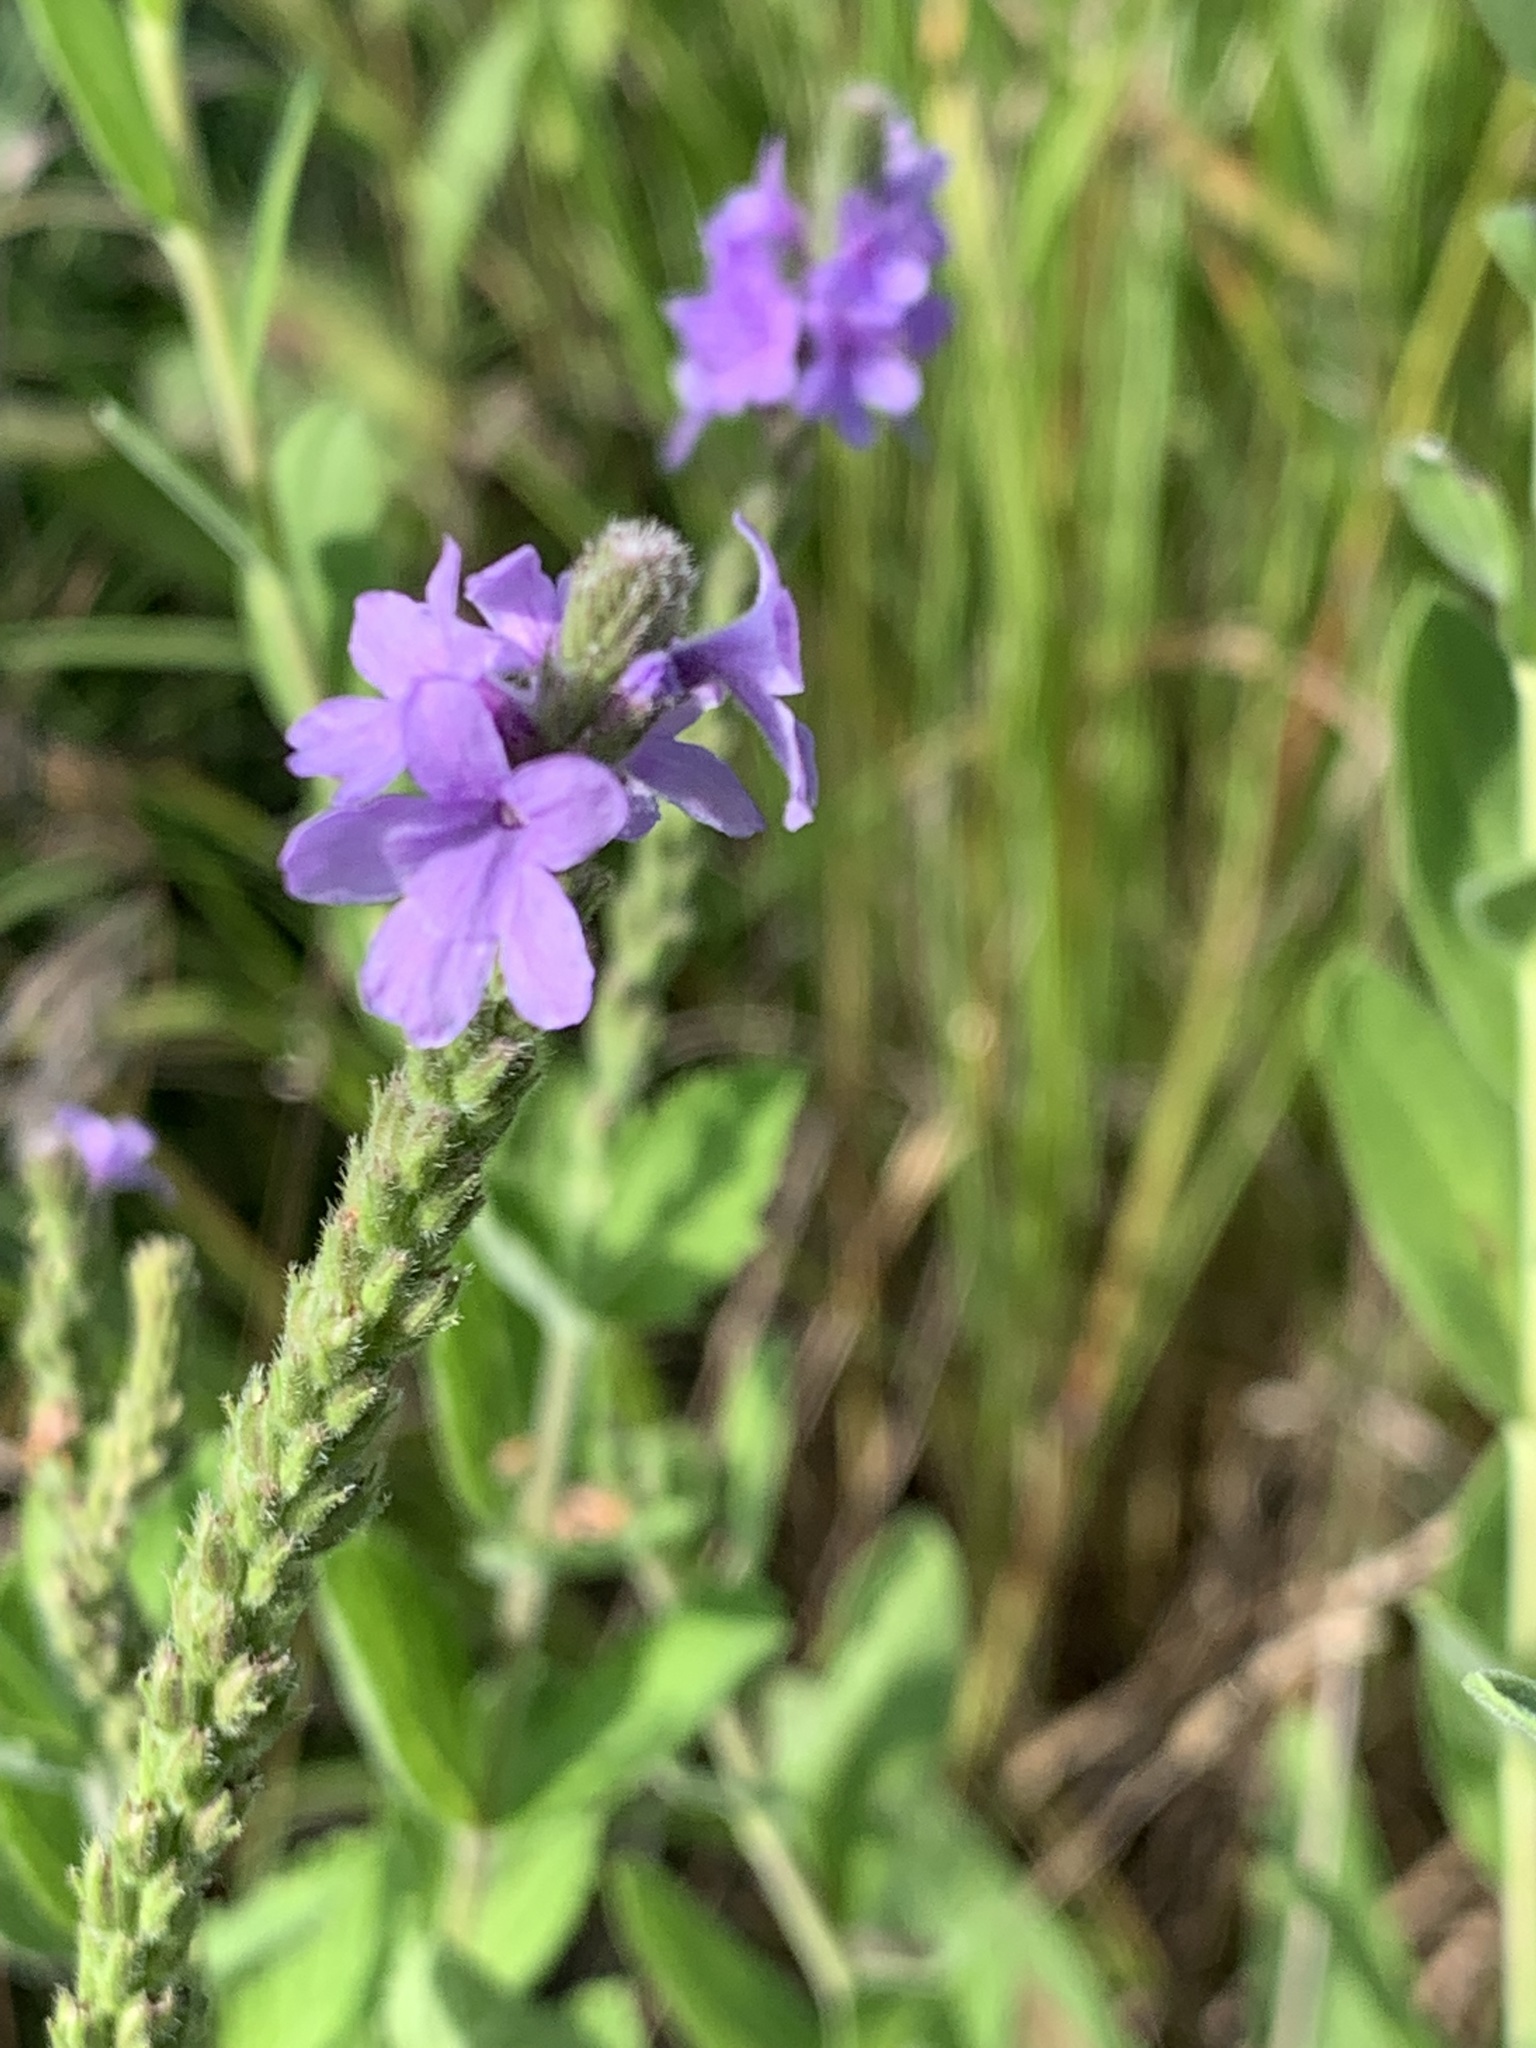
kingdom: Plantae
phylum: Tracheophyta
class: Magnoliopsida
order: Lamiales
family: Verbenaceae
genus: Verbena
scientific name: Verbena stricta
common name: Hoary vervain
